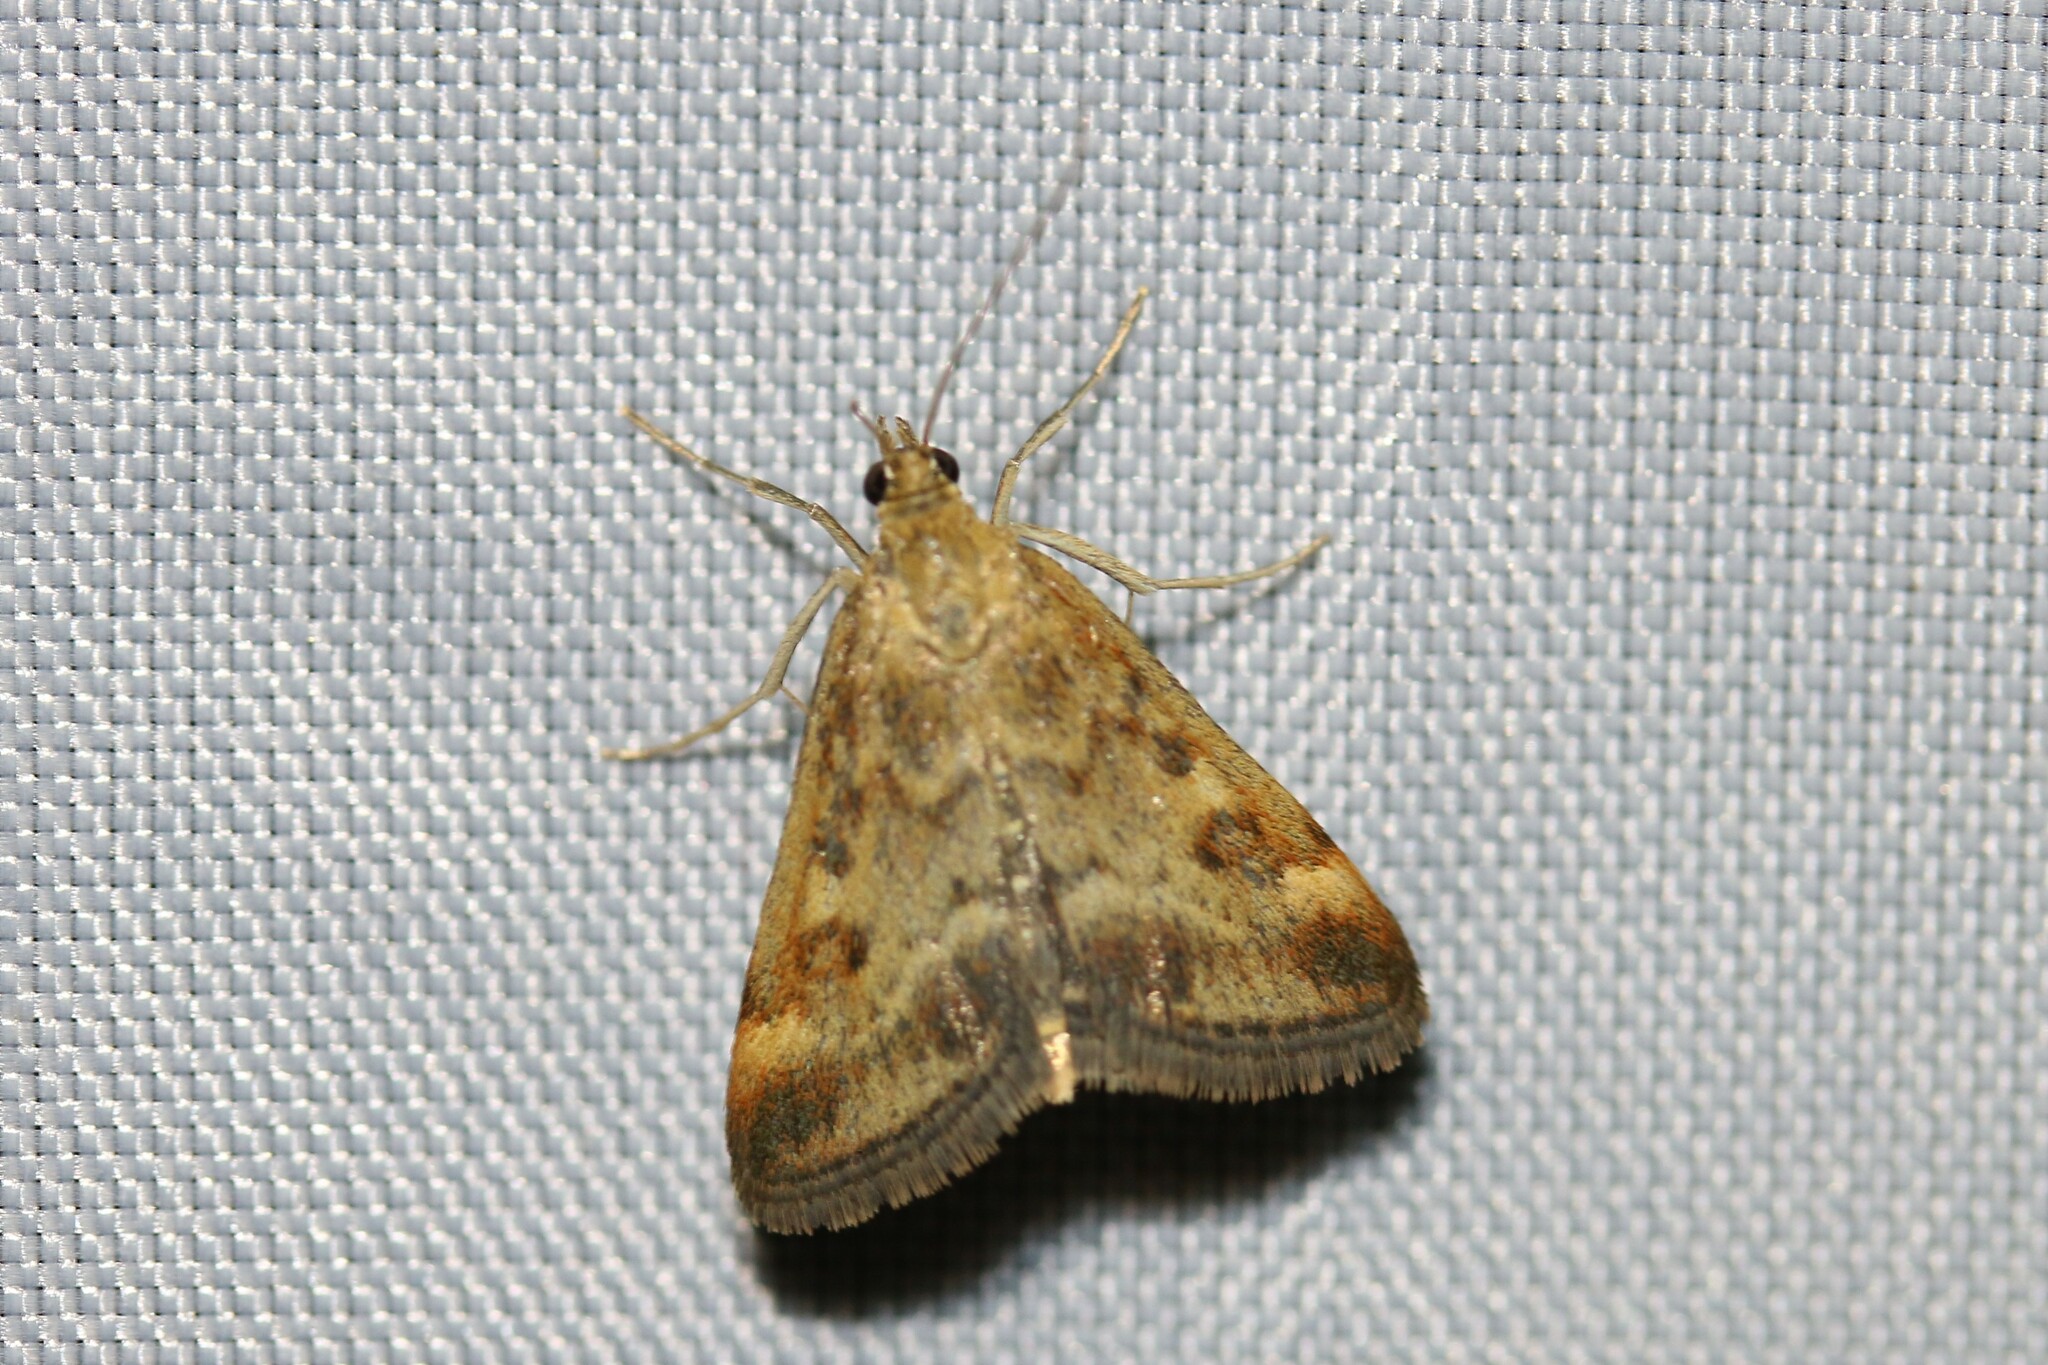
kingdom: Animalia
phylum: Arthropoda
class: Insecta
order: Lepidoptera
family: Crambidae
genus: Pyrausta
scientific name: Pyrausta despicata
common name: Straw-barred pearl
